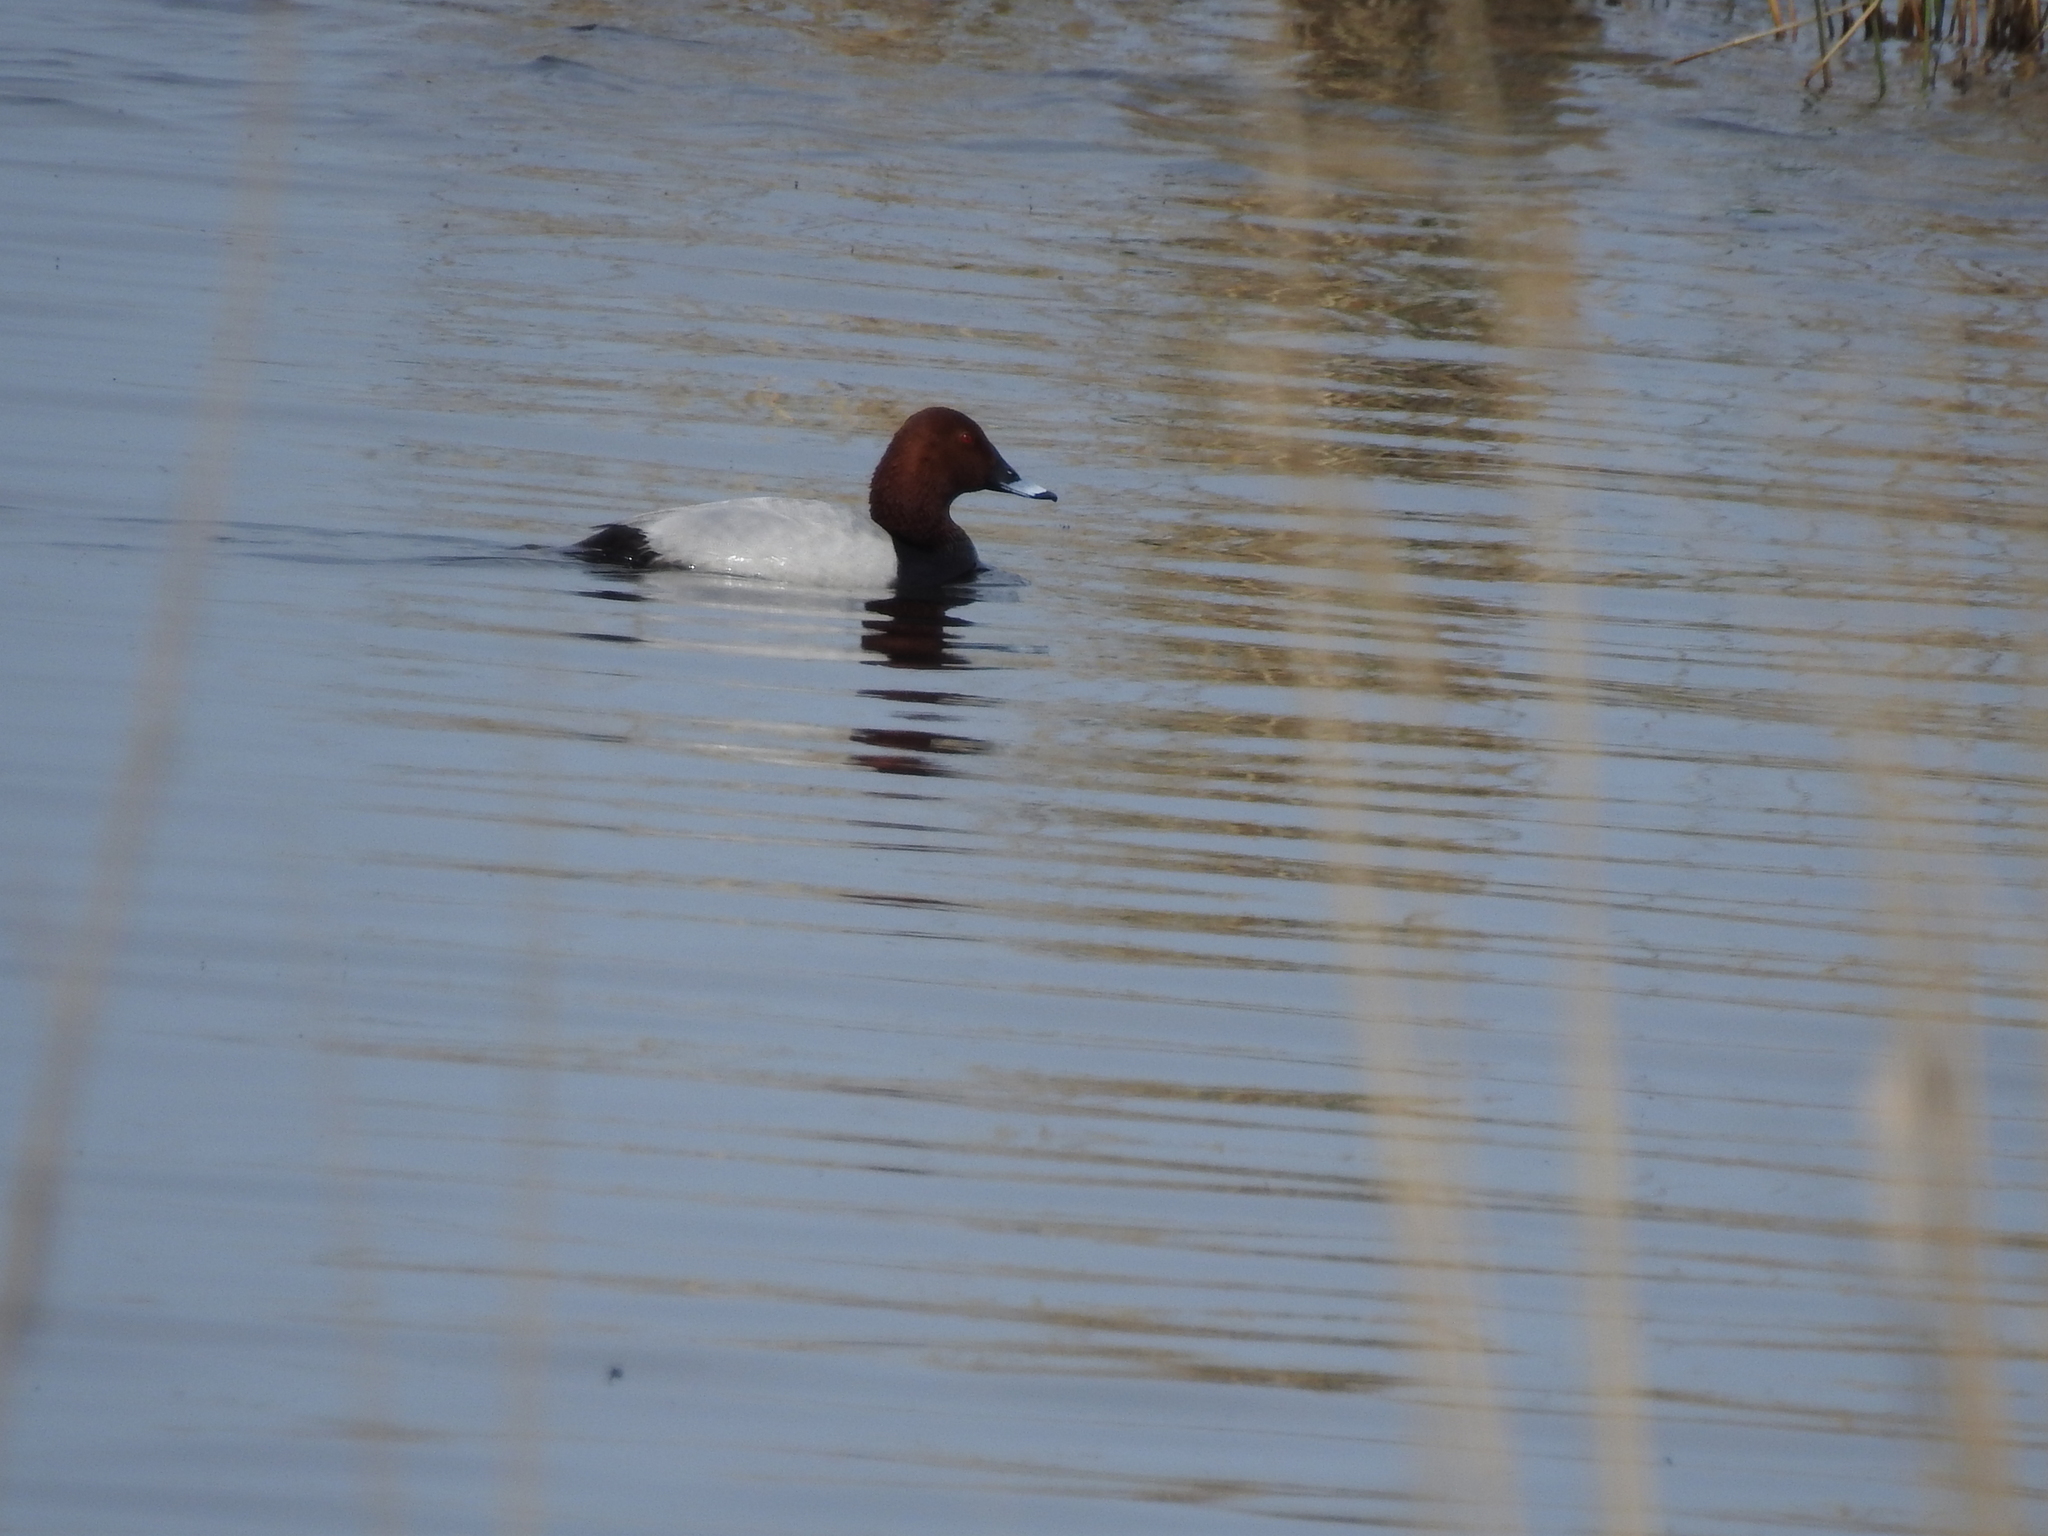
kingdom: Animalia
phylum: Chordata
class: Aves
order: Anseriformes
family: Anatidae
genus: Aythya
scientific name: Aythya ferina
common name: Common pochard
